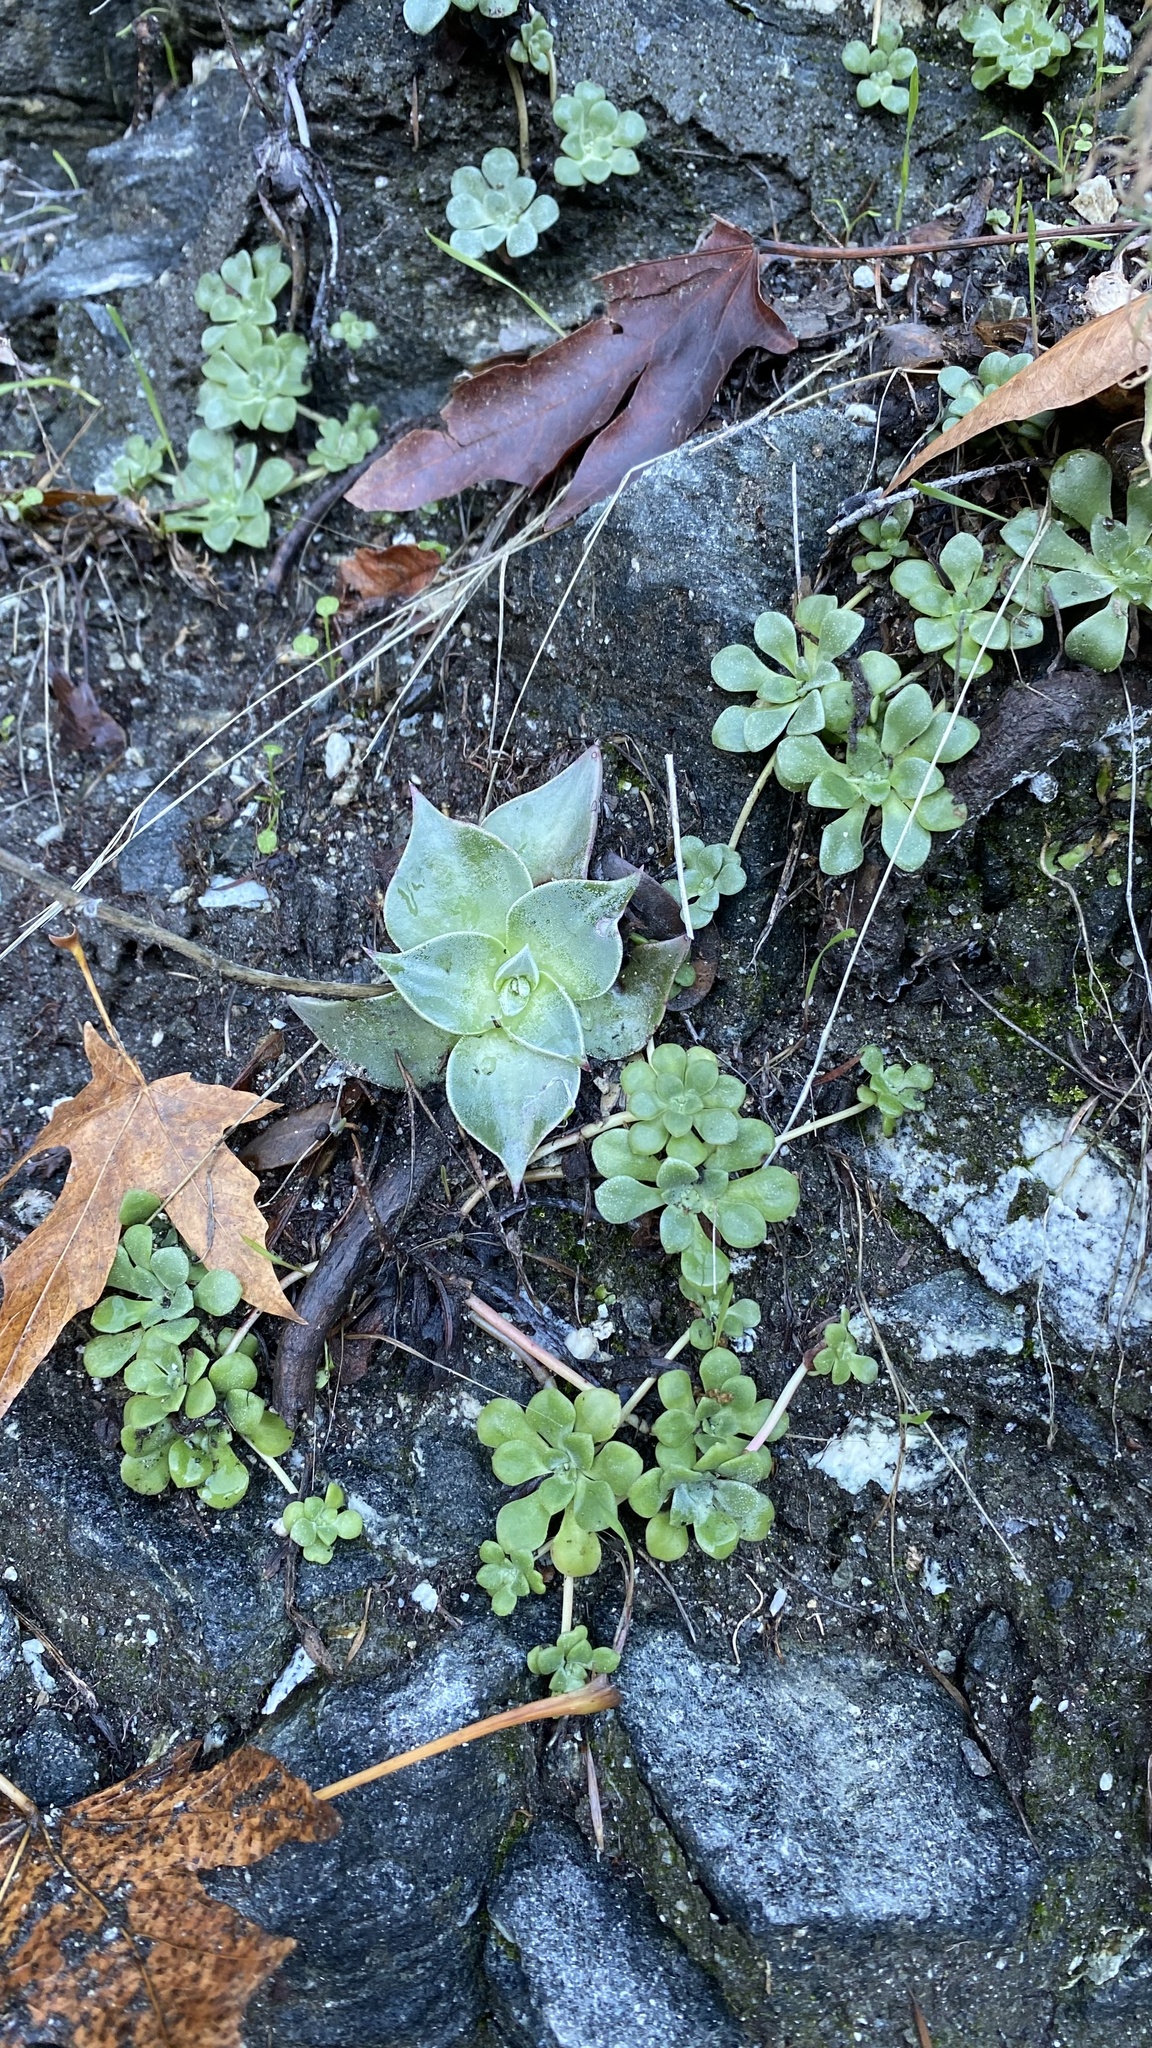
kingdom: Plantae
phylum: Tracheophyta
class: Magnoliopsida
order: Saxifragales
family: Crassulaceae
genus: Dudleya
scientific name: Dudleya cymosa
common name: Canyon dudleya
